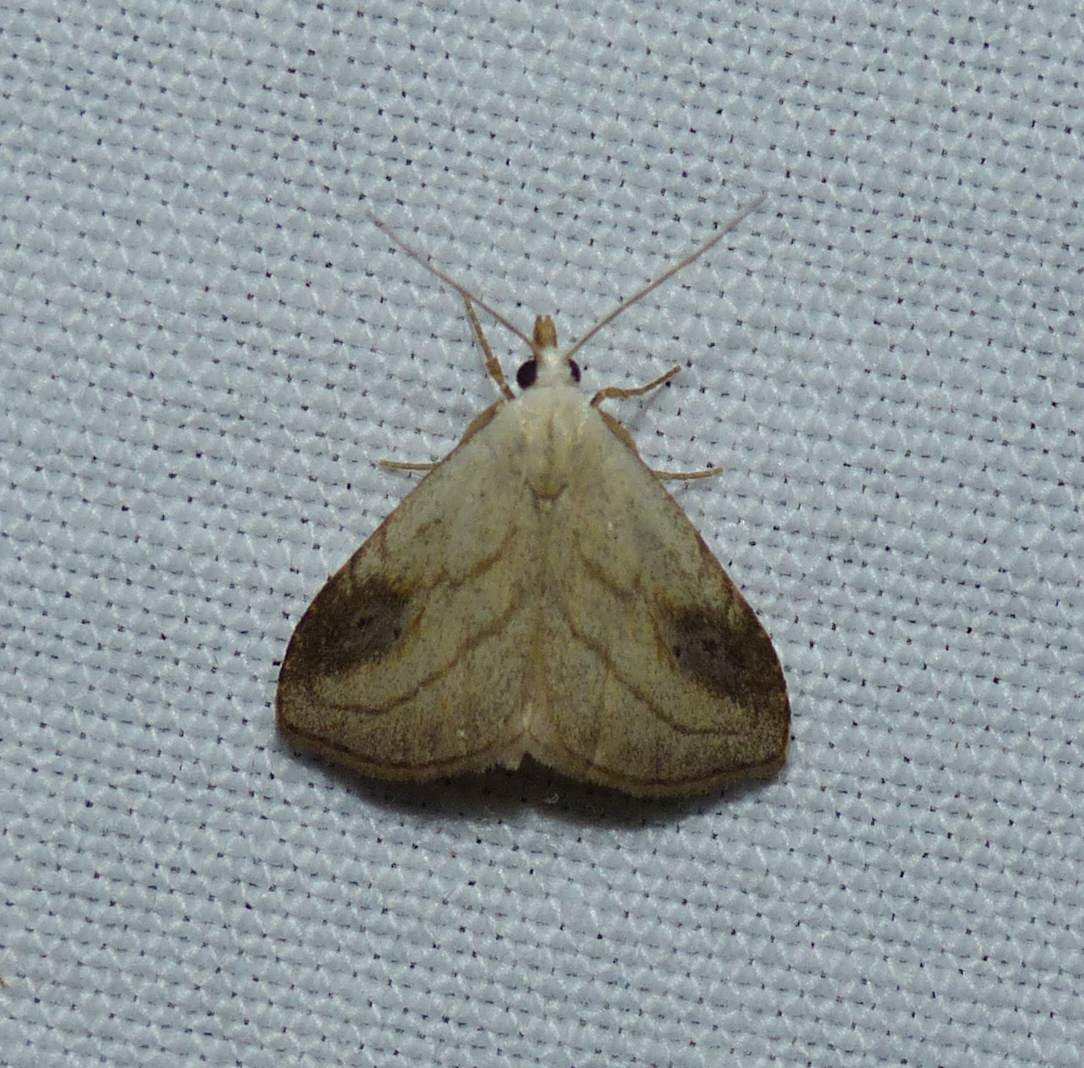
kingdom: Animalia
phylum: Arthropoda
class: Insecta
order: Lepidoptera
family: Erebidae
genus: Rivula
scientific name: Rivula propinqualis
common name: Spotted grass moth
